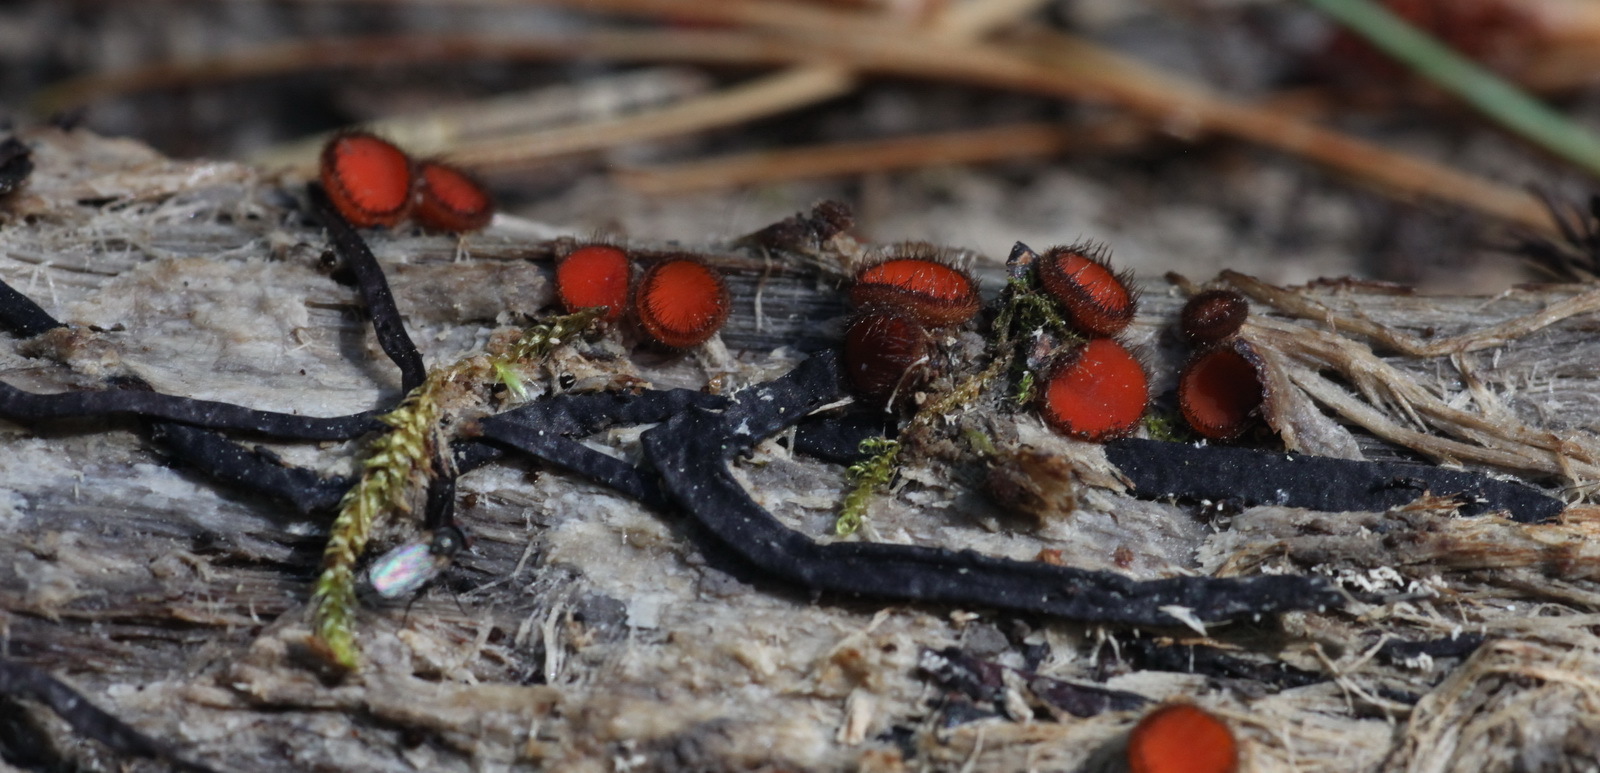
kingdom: Fungi
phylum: Ascomycota
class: Pezizomycetes
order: Pezizales
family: Pyronemataceae
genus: Scutellinia
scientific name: Scutellinia scutellata
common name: Common eyelash
